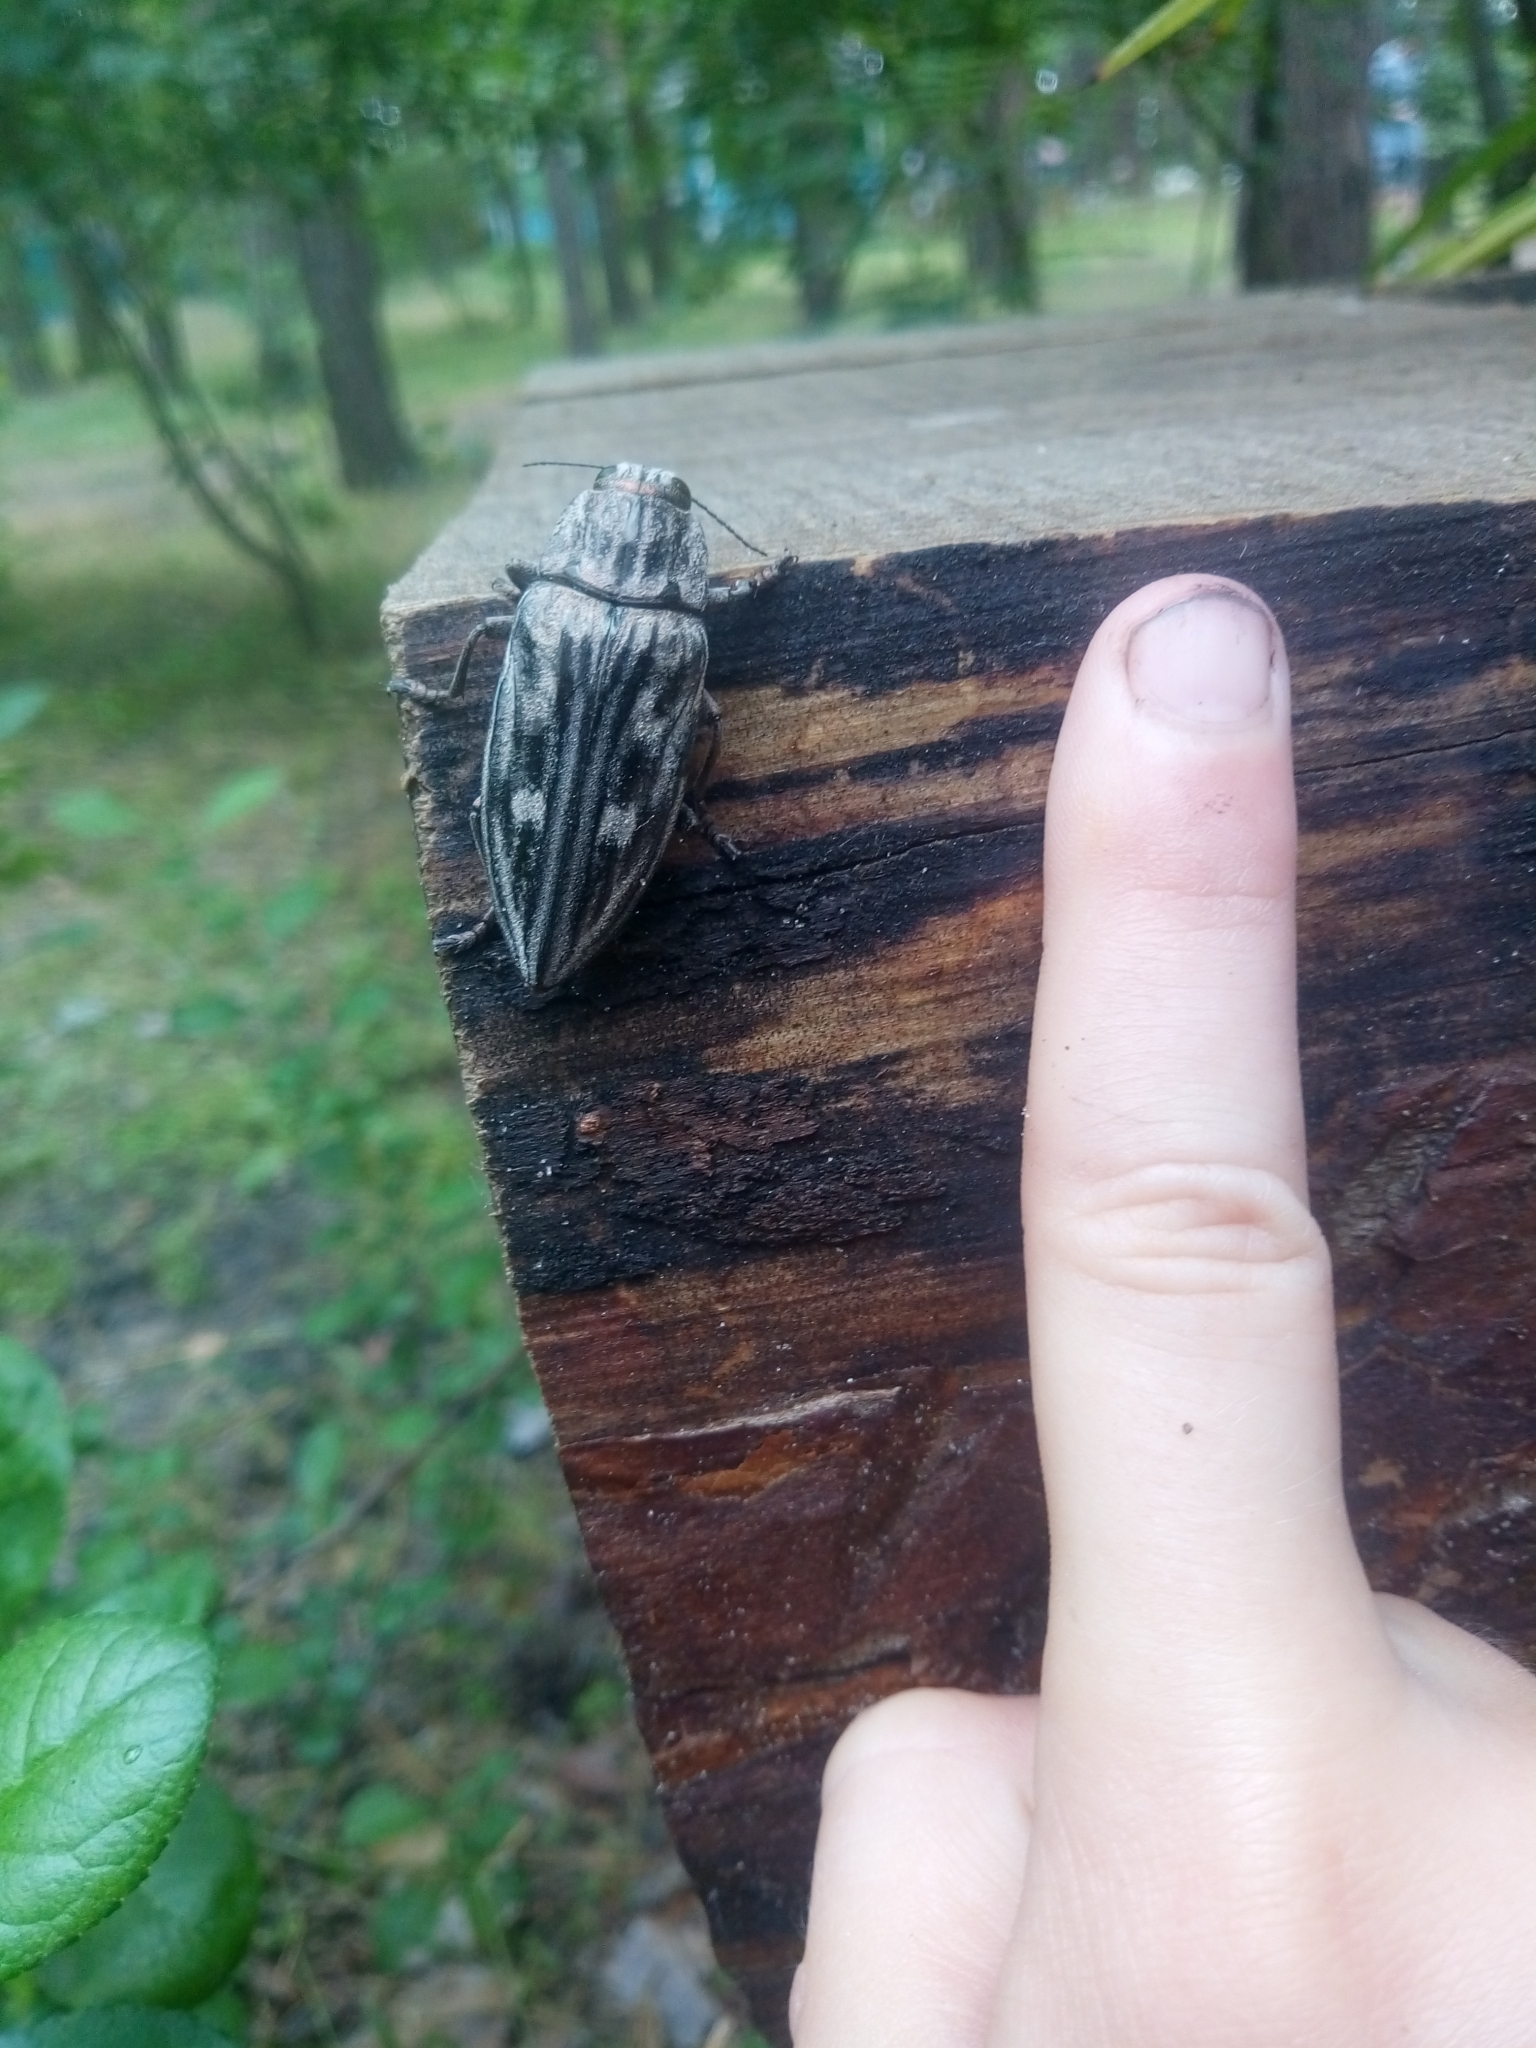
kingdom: Animalia
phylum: Arthropoda
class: Insecta
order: Coleoptera
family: Buprestidae
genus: Chalcophora
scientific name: Chalcophora mariana
